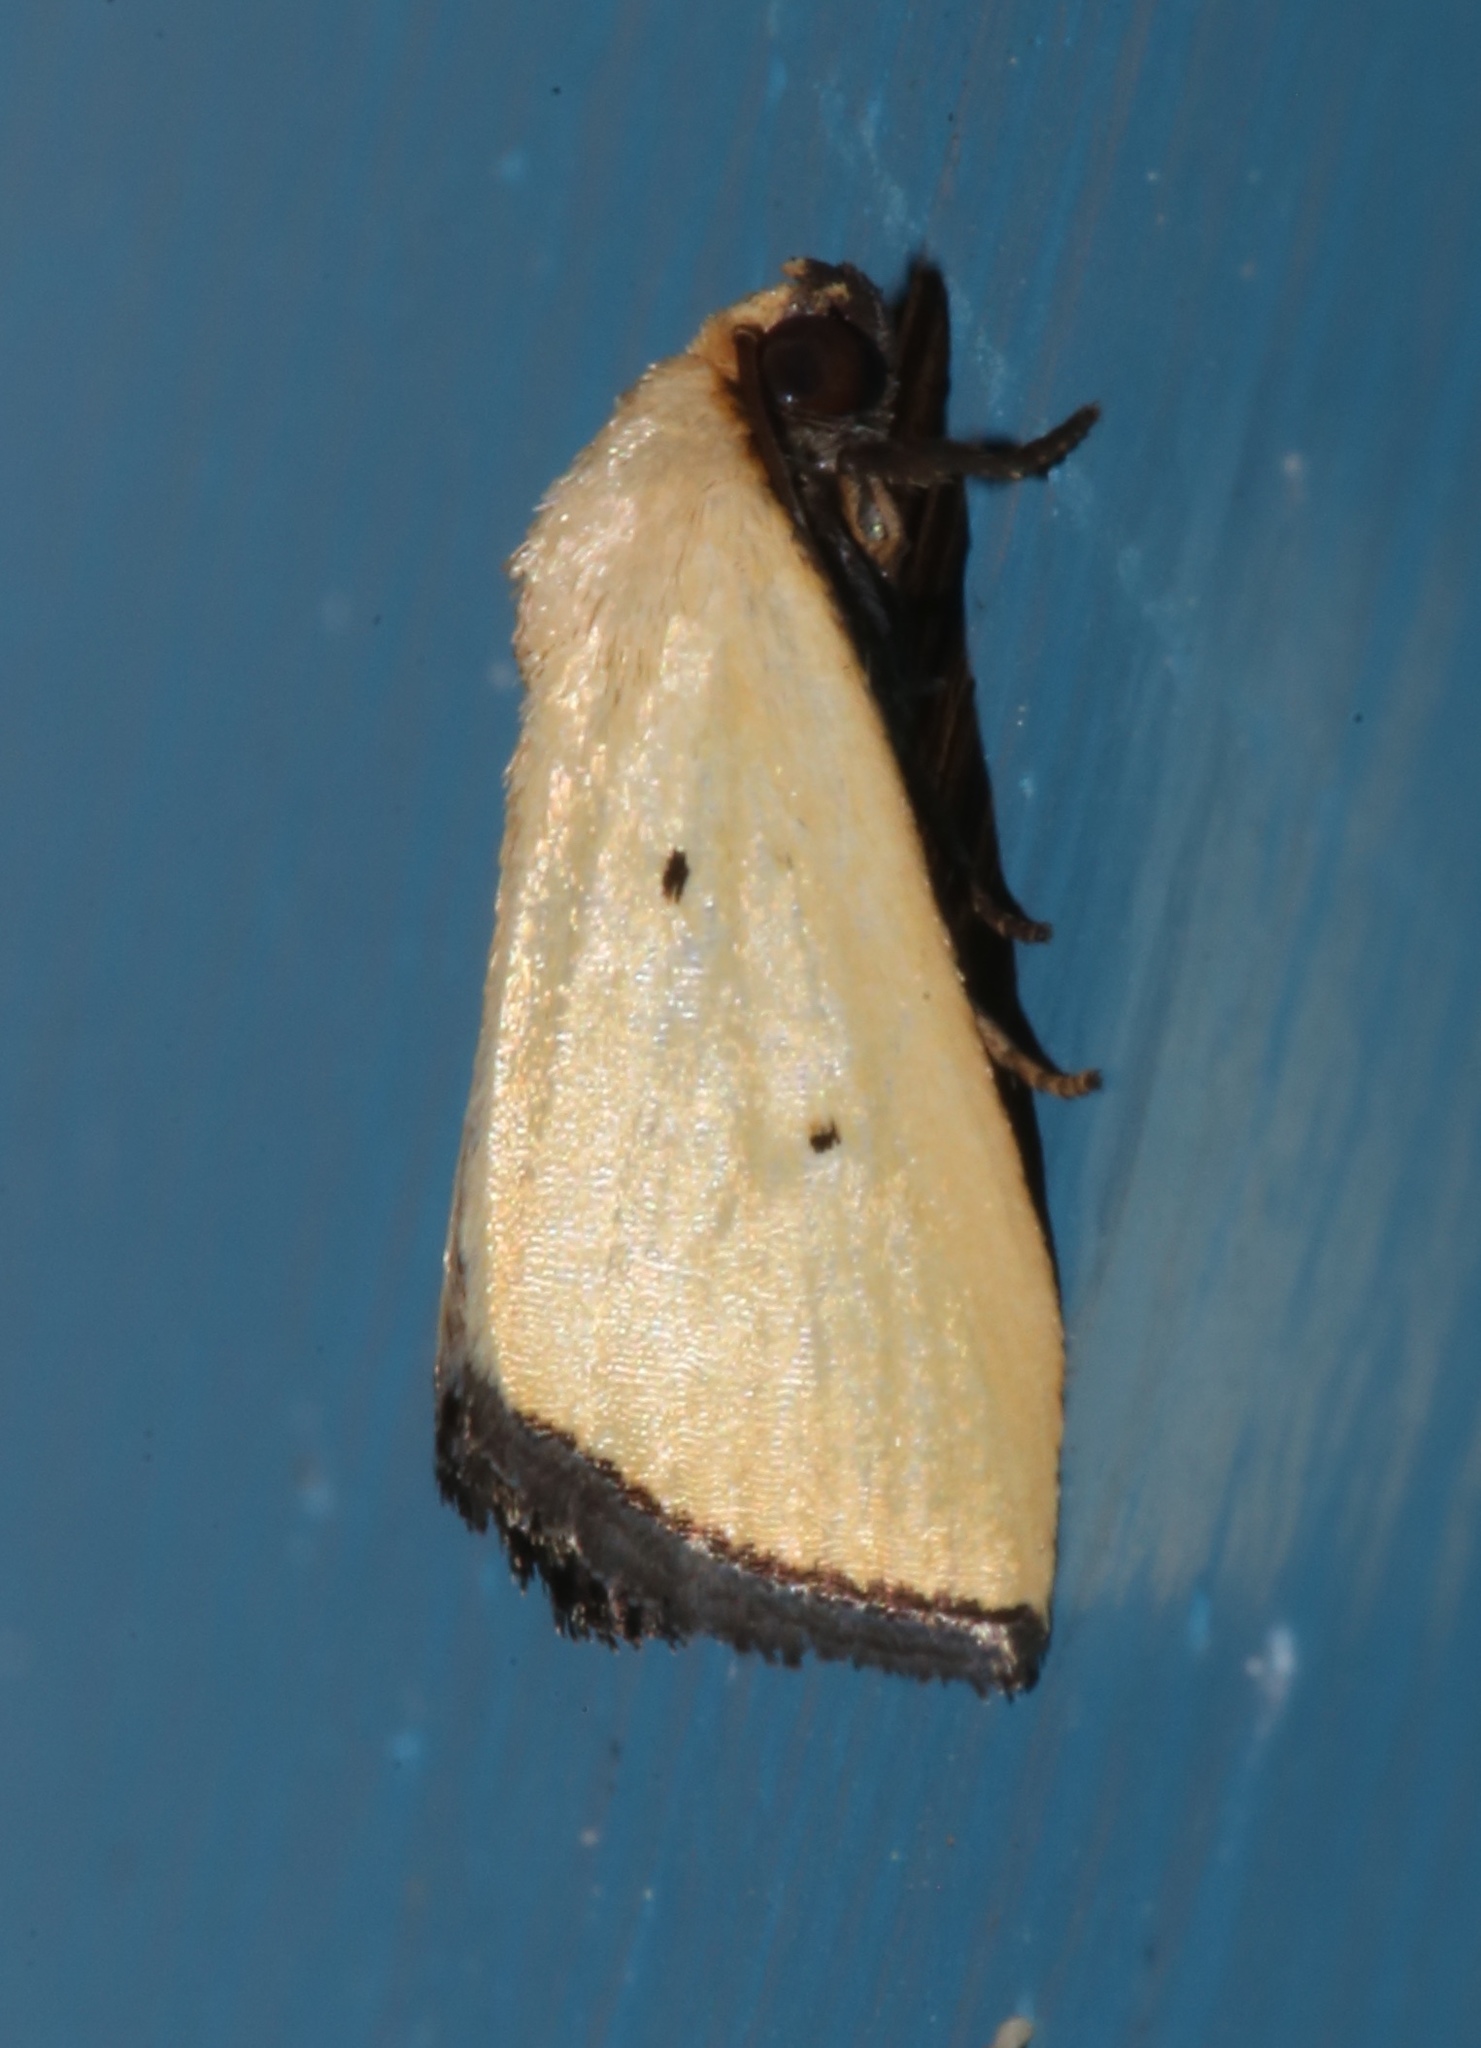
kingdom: Animalia
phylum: Arthropoda
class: Insecta
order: Lepidoptera
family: Noctuidae
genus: Marimatha
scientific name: Marimatha nigrofimbria
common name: Black-bordered lemon moth
